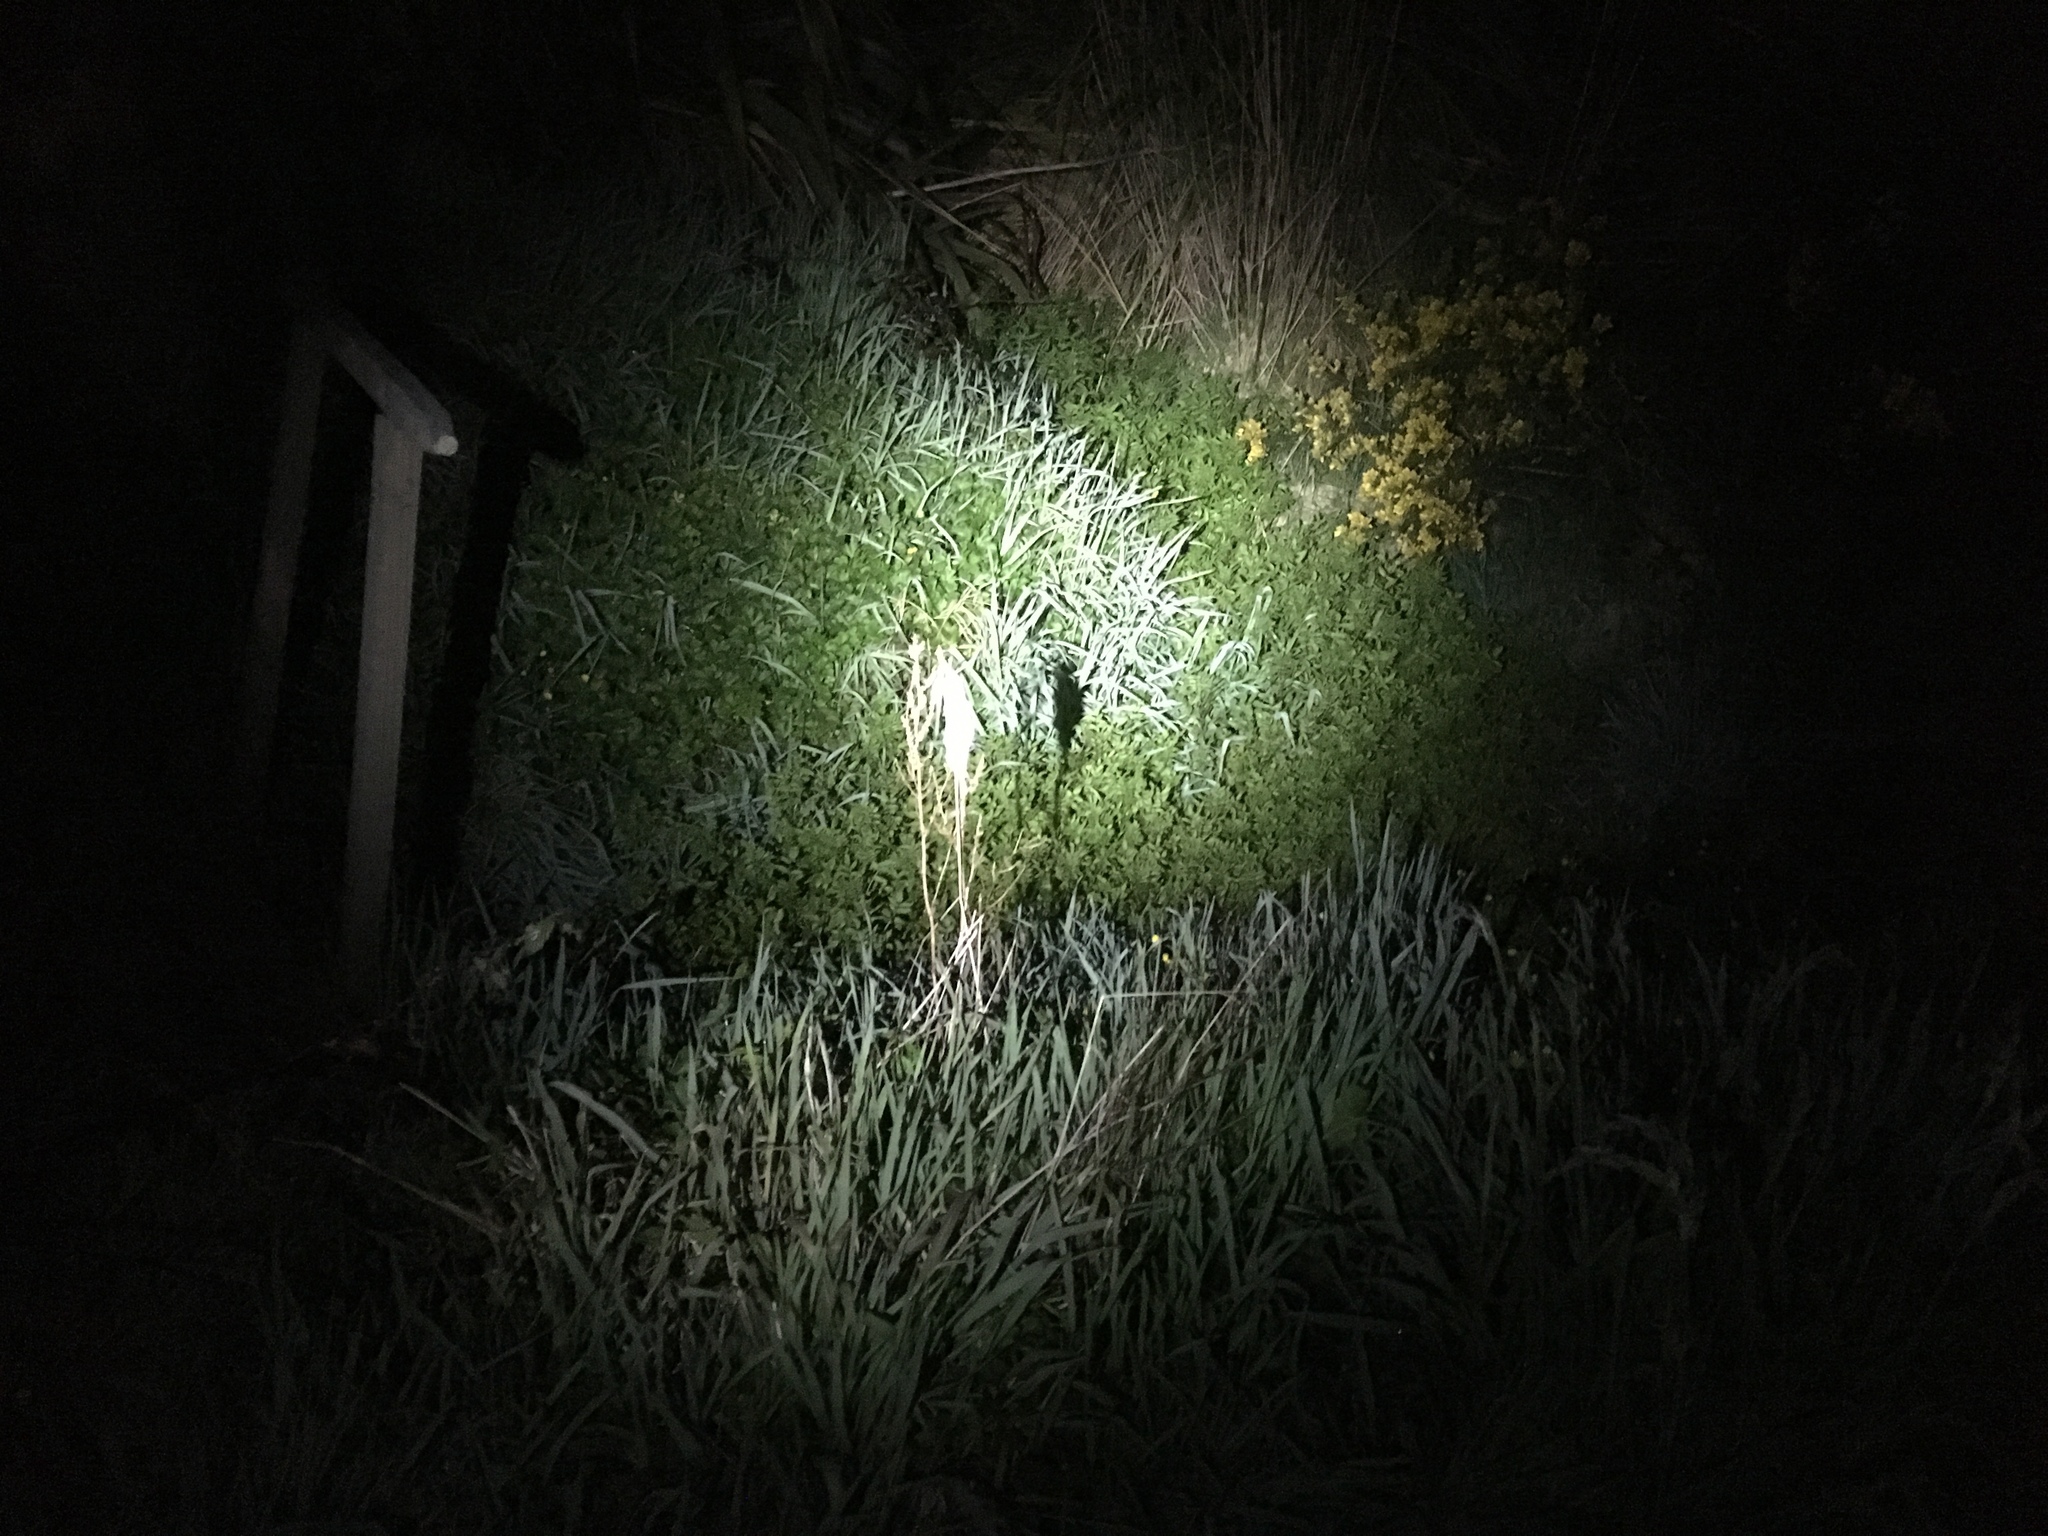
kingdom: Animalia
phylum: Arthropoda
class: Arachnida
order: Araneae
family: Pisauridae
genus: Dolomedes
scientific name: Dolomedes minor
